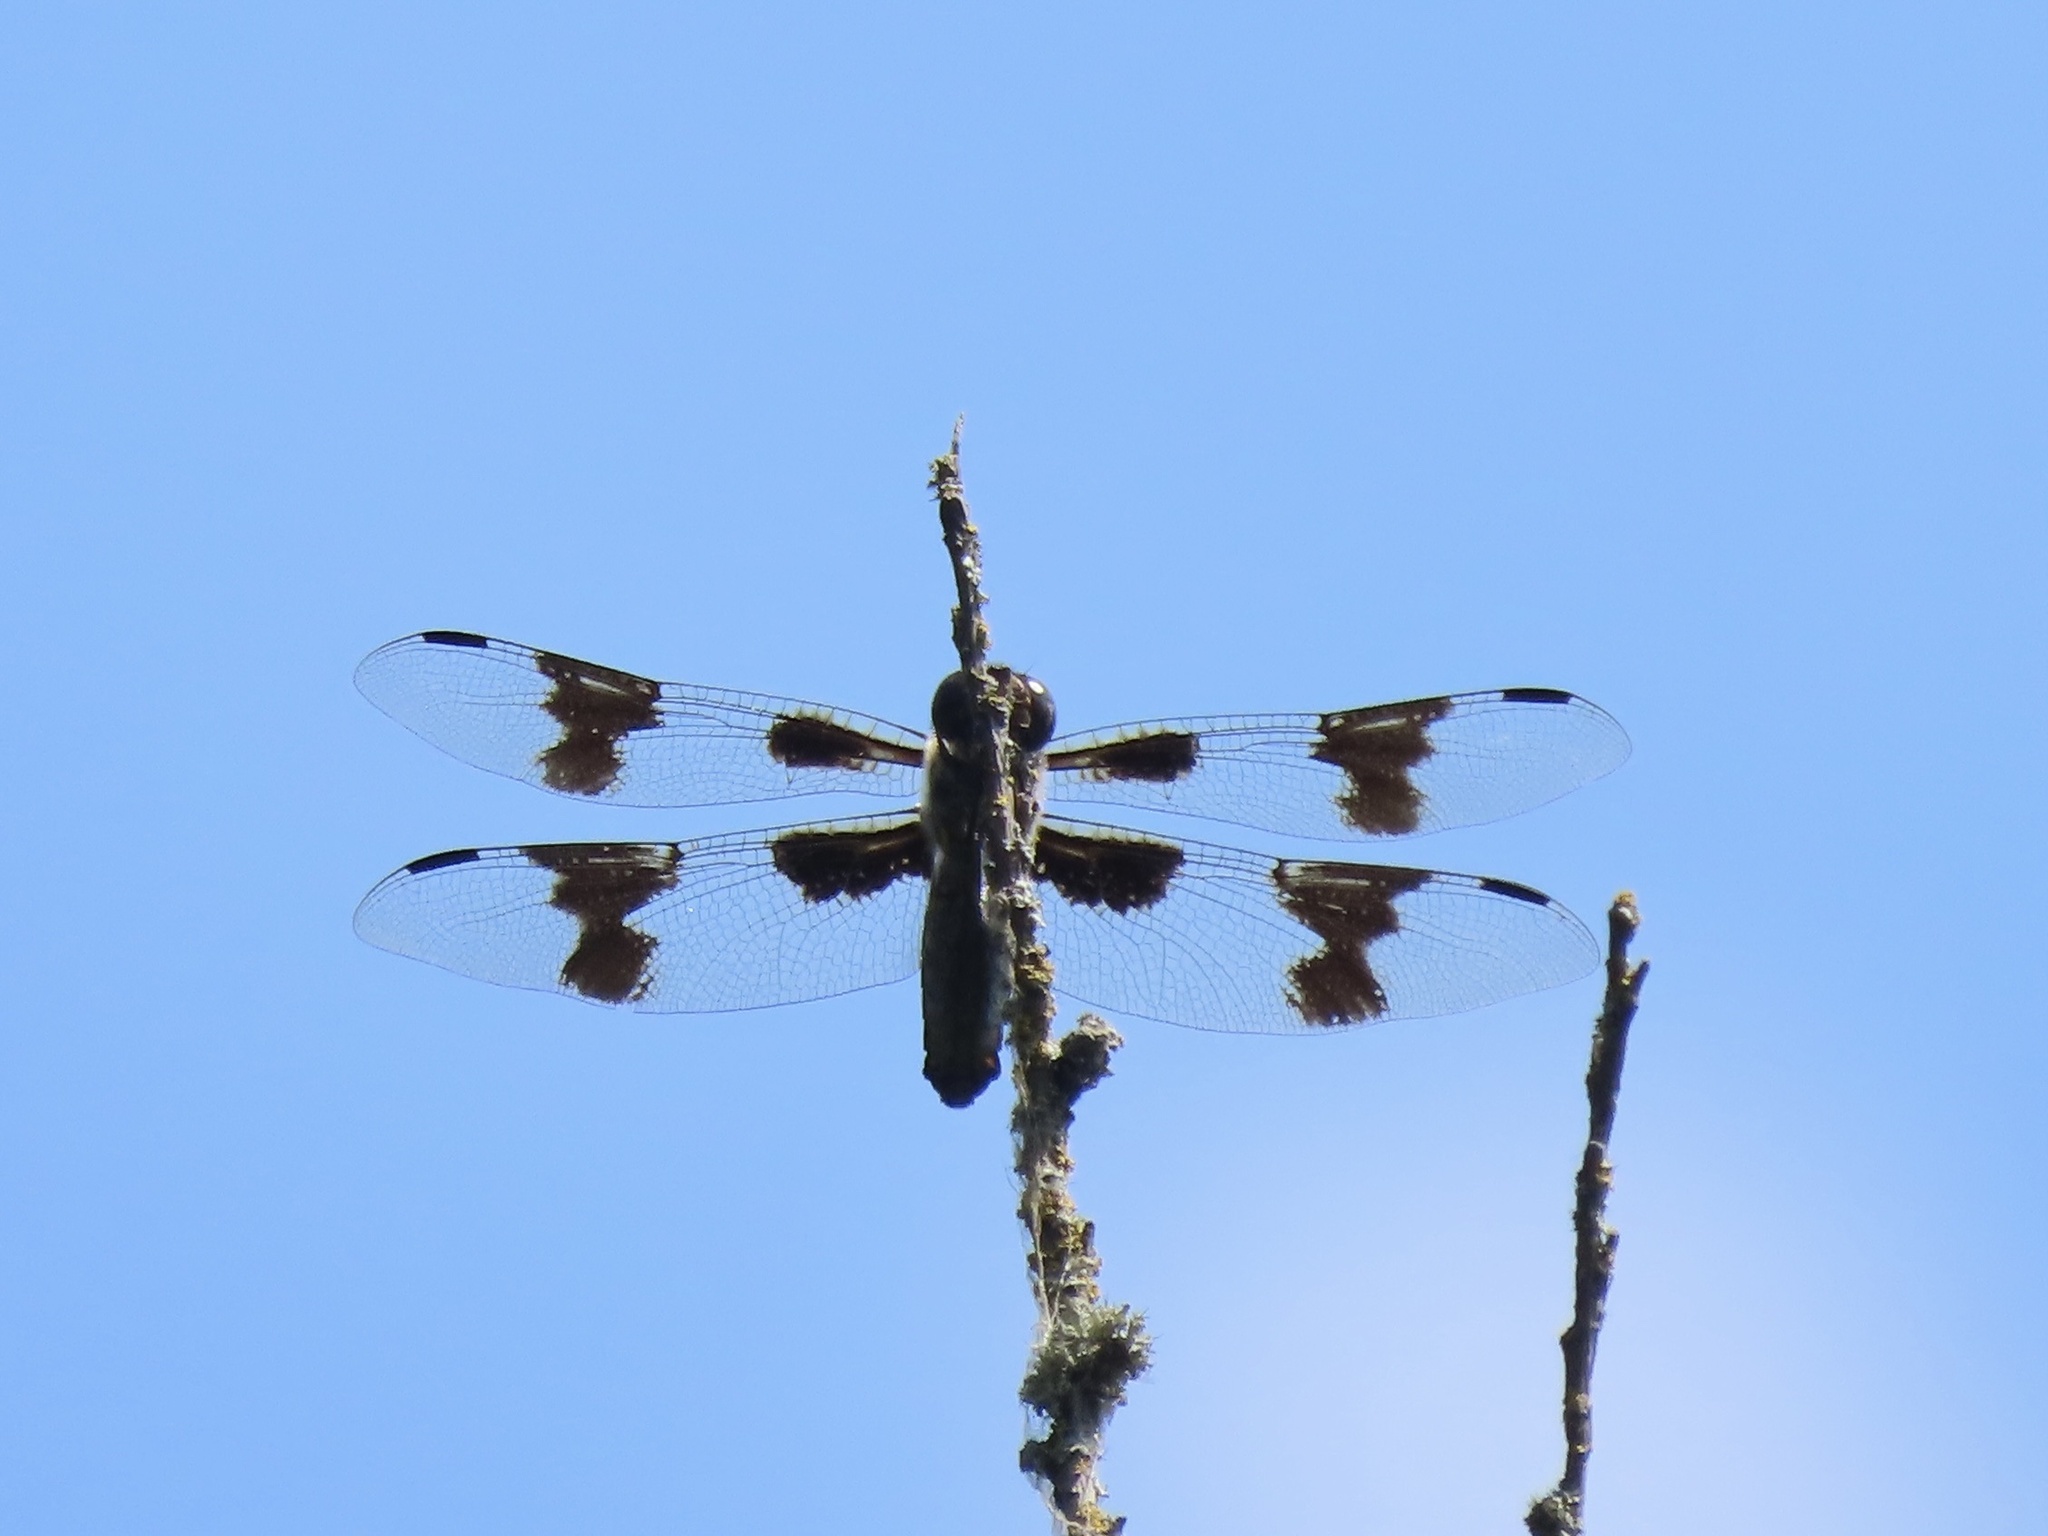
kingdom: Animalia
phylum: Arthropoda
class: Insecta
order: Odonata
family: Libellulidae
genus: Libellula
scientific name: Libellula forensis
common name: Eight-spotted skimmer
